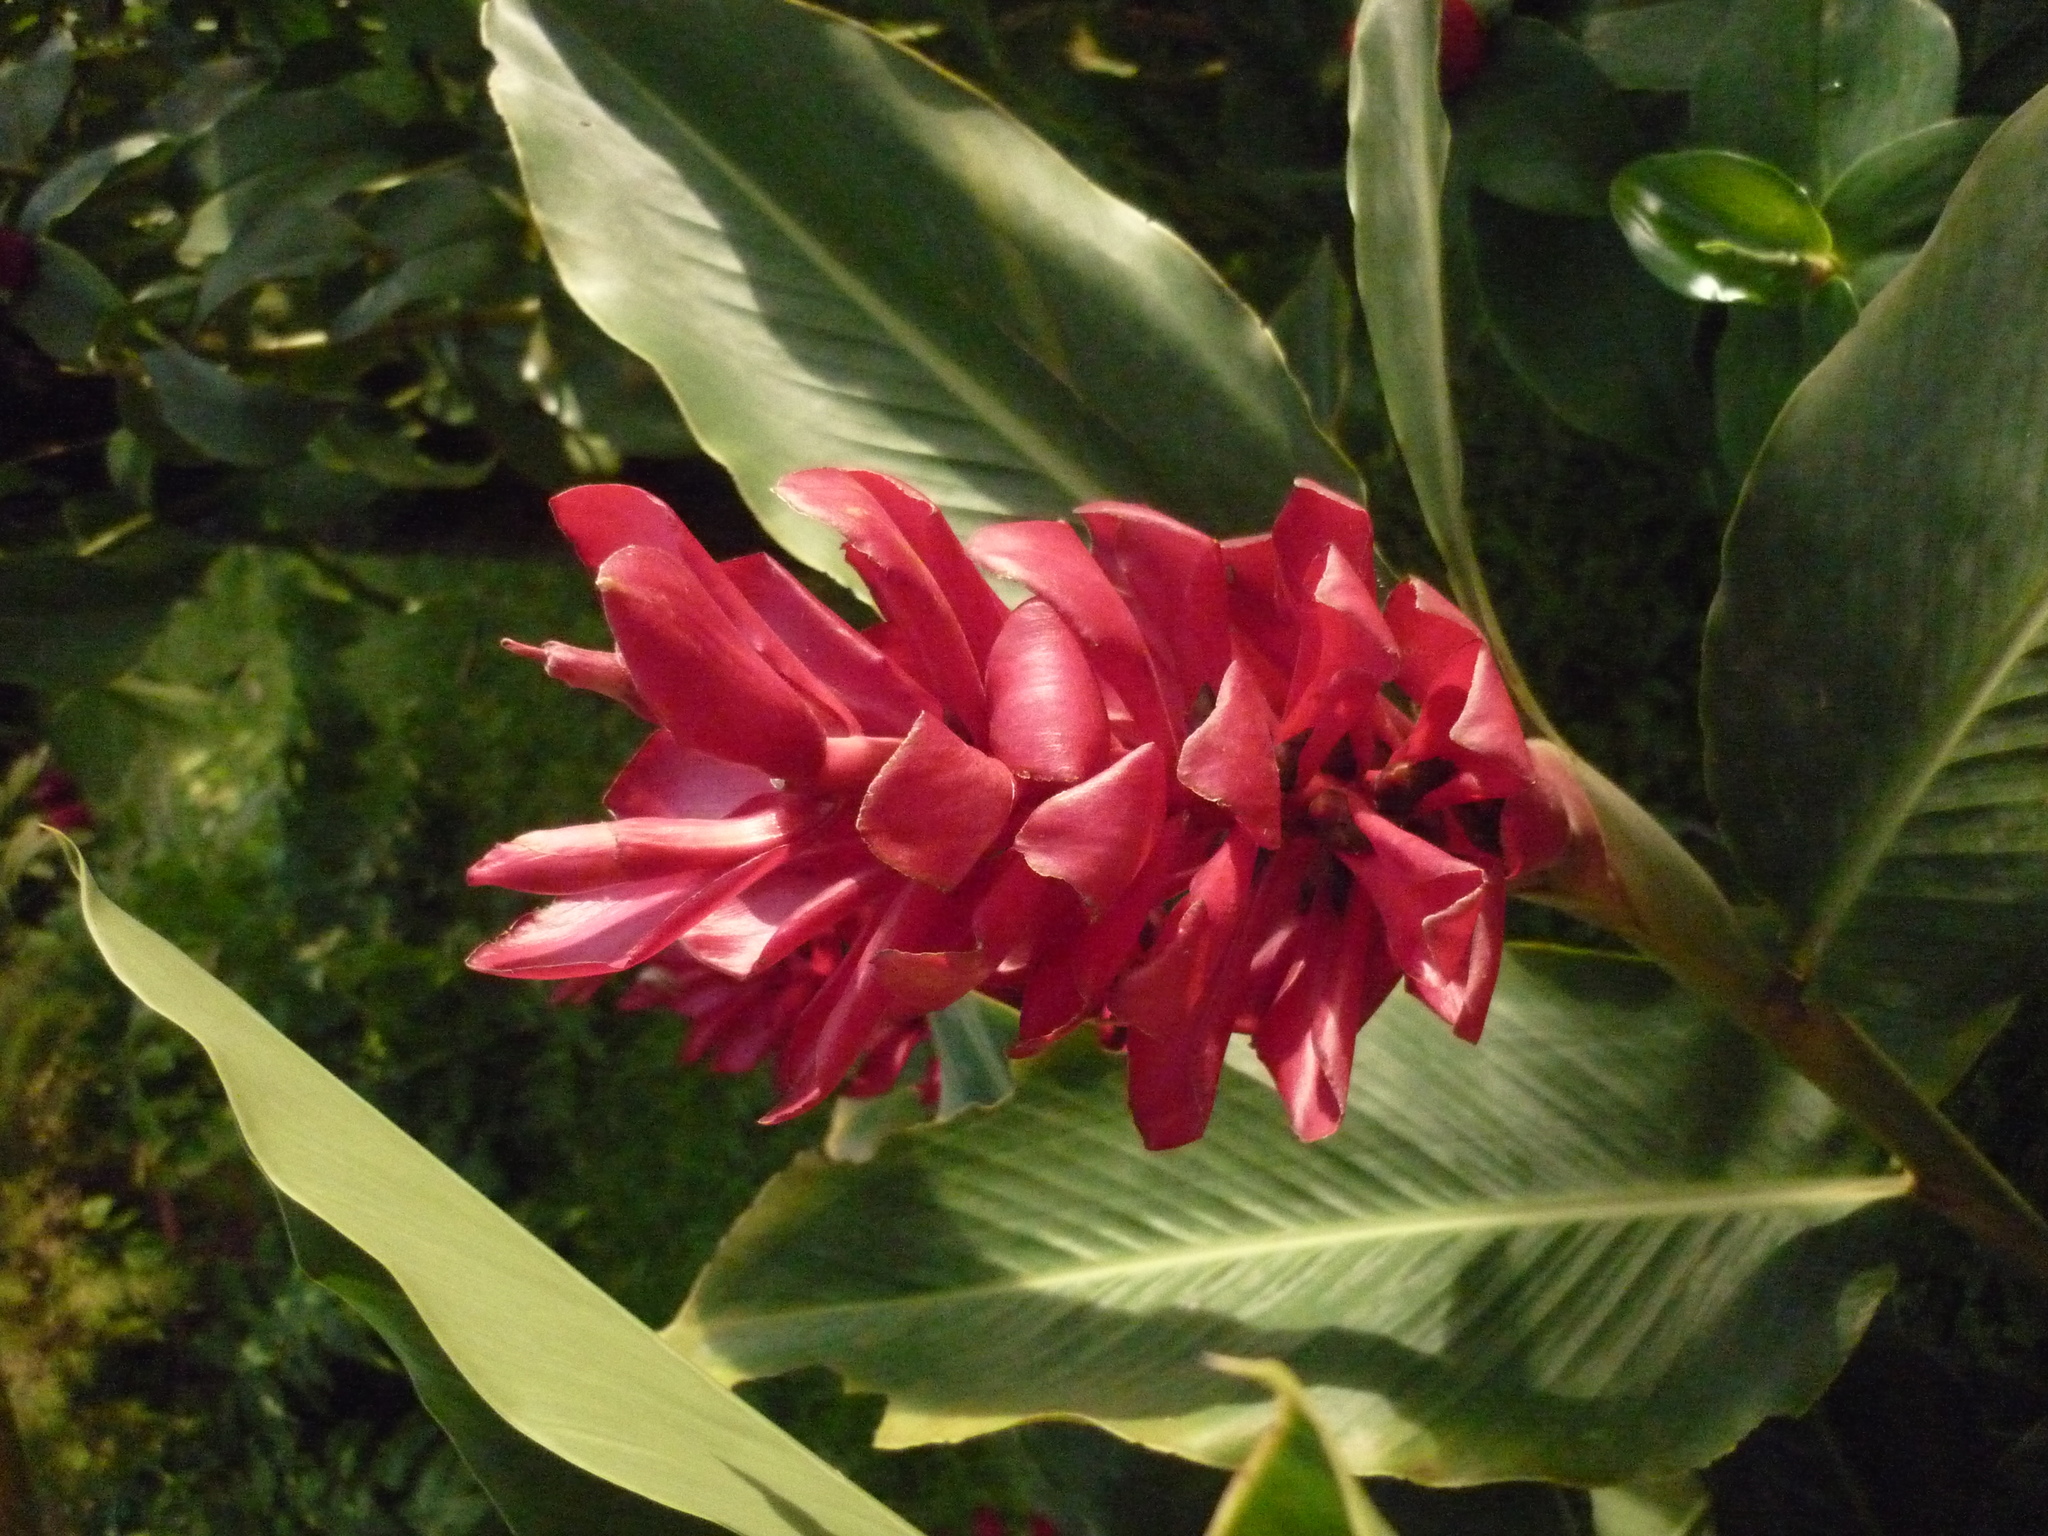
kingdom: Plantae
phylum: Tracheophyta
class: Liliopsida
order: Zingiberales
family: Zingiberaceae
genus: Alpinia
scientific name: Alpinia purpurata
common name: Red ginger
